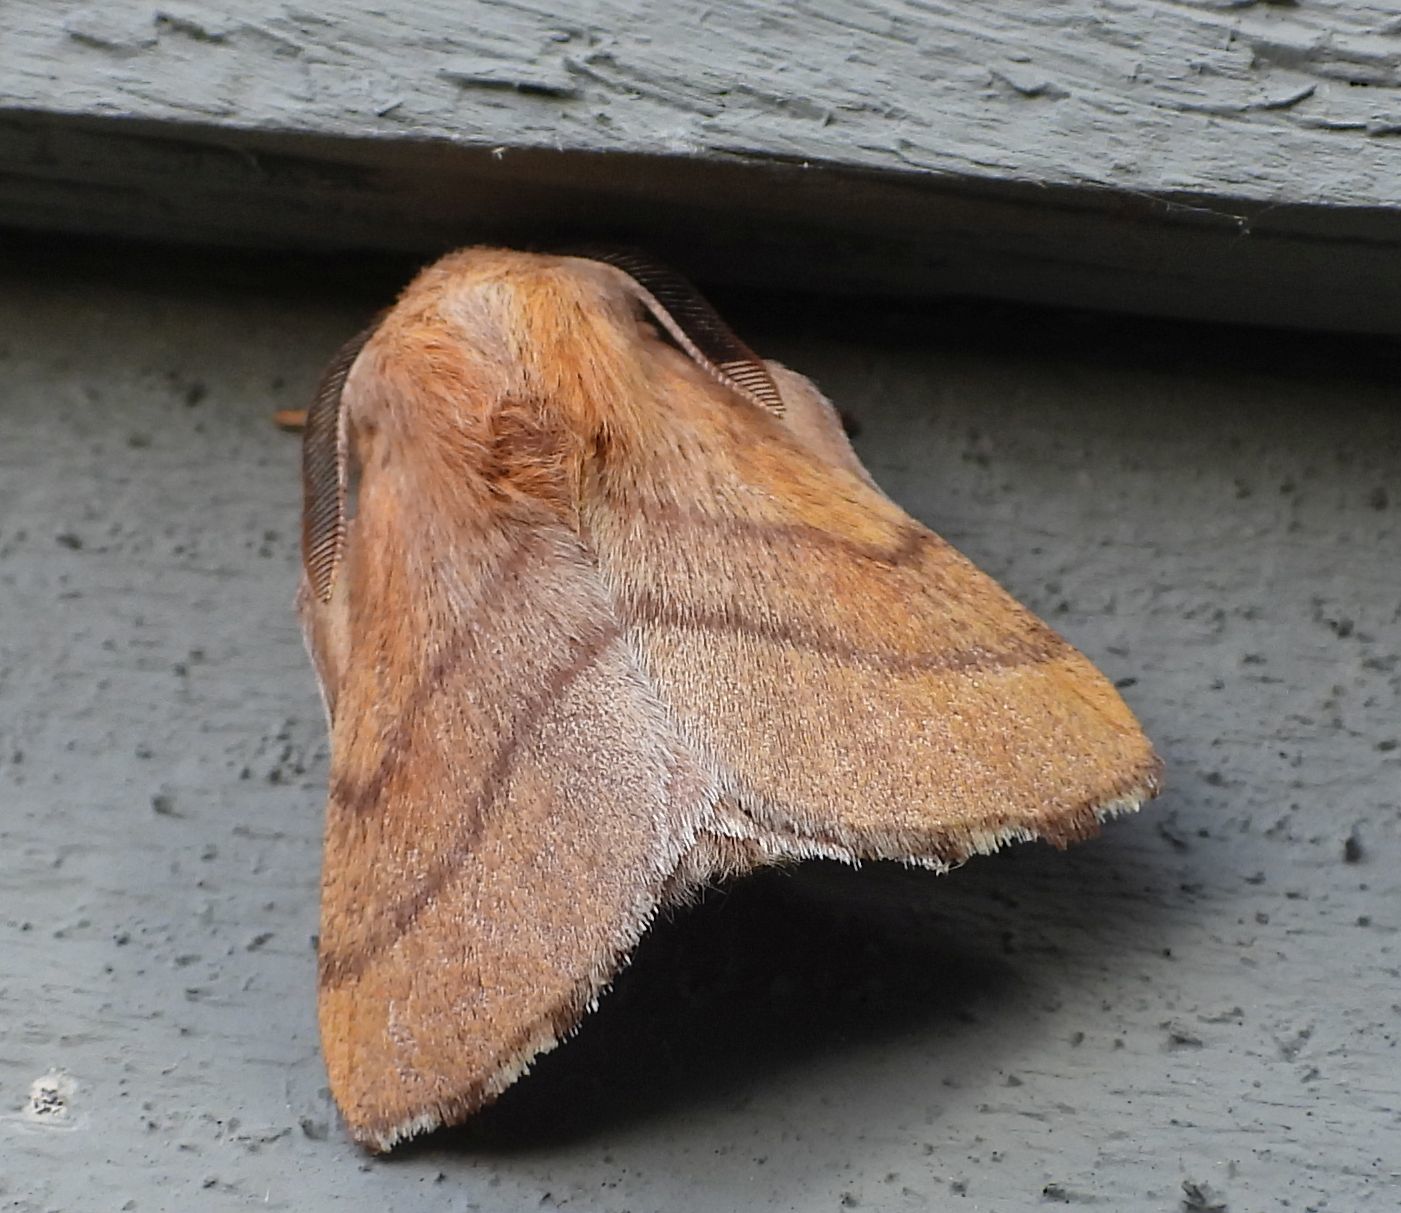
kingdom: Animalia
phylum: Arthropoda
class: Insecta
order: Lepidoptera
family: Lasiocampidae
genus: Malacosoma
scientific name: Malacosoma disstria
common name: Forest tent caterpillar
